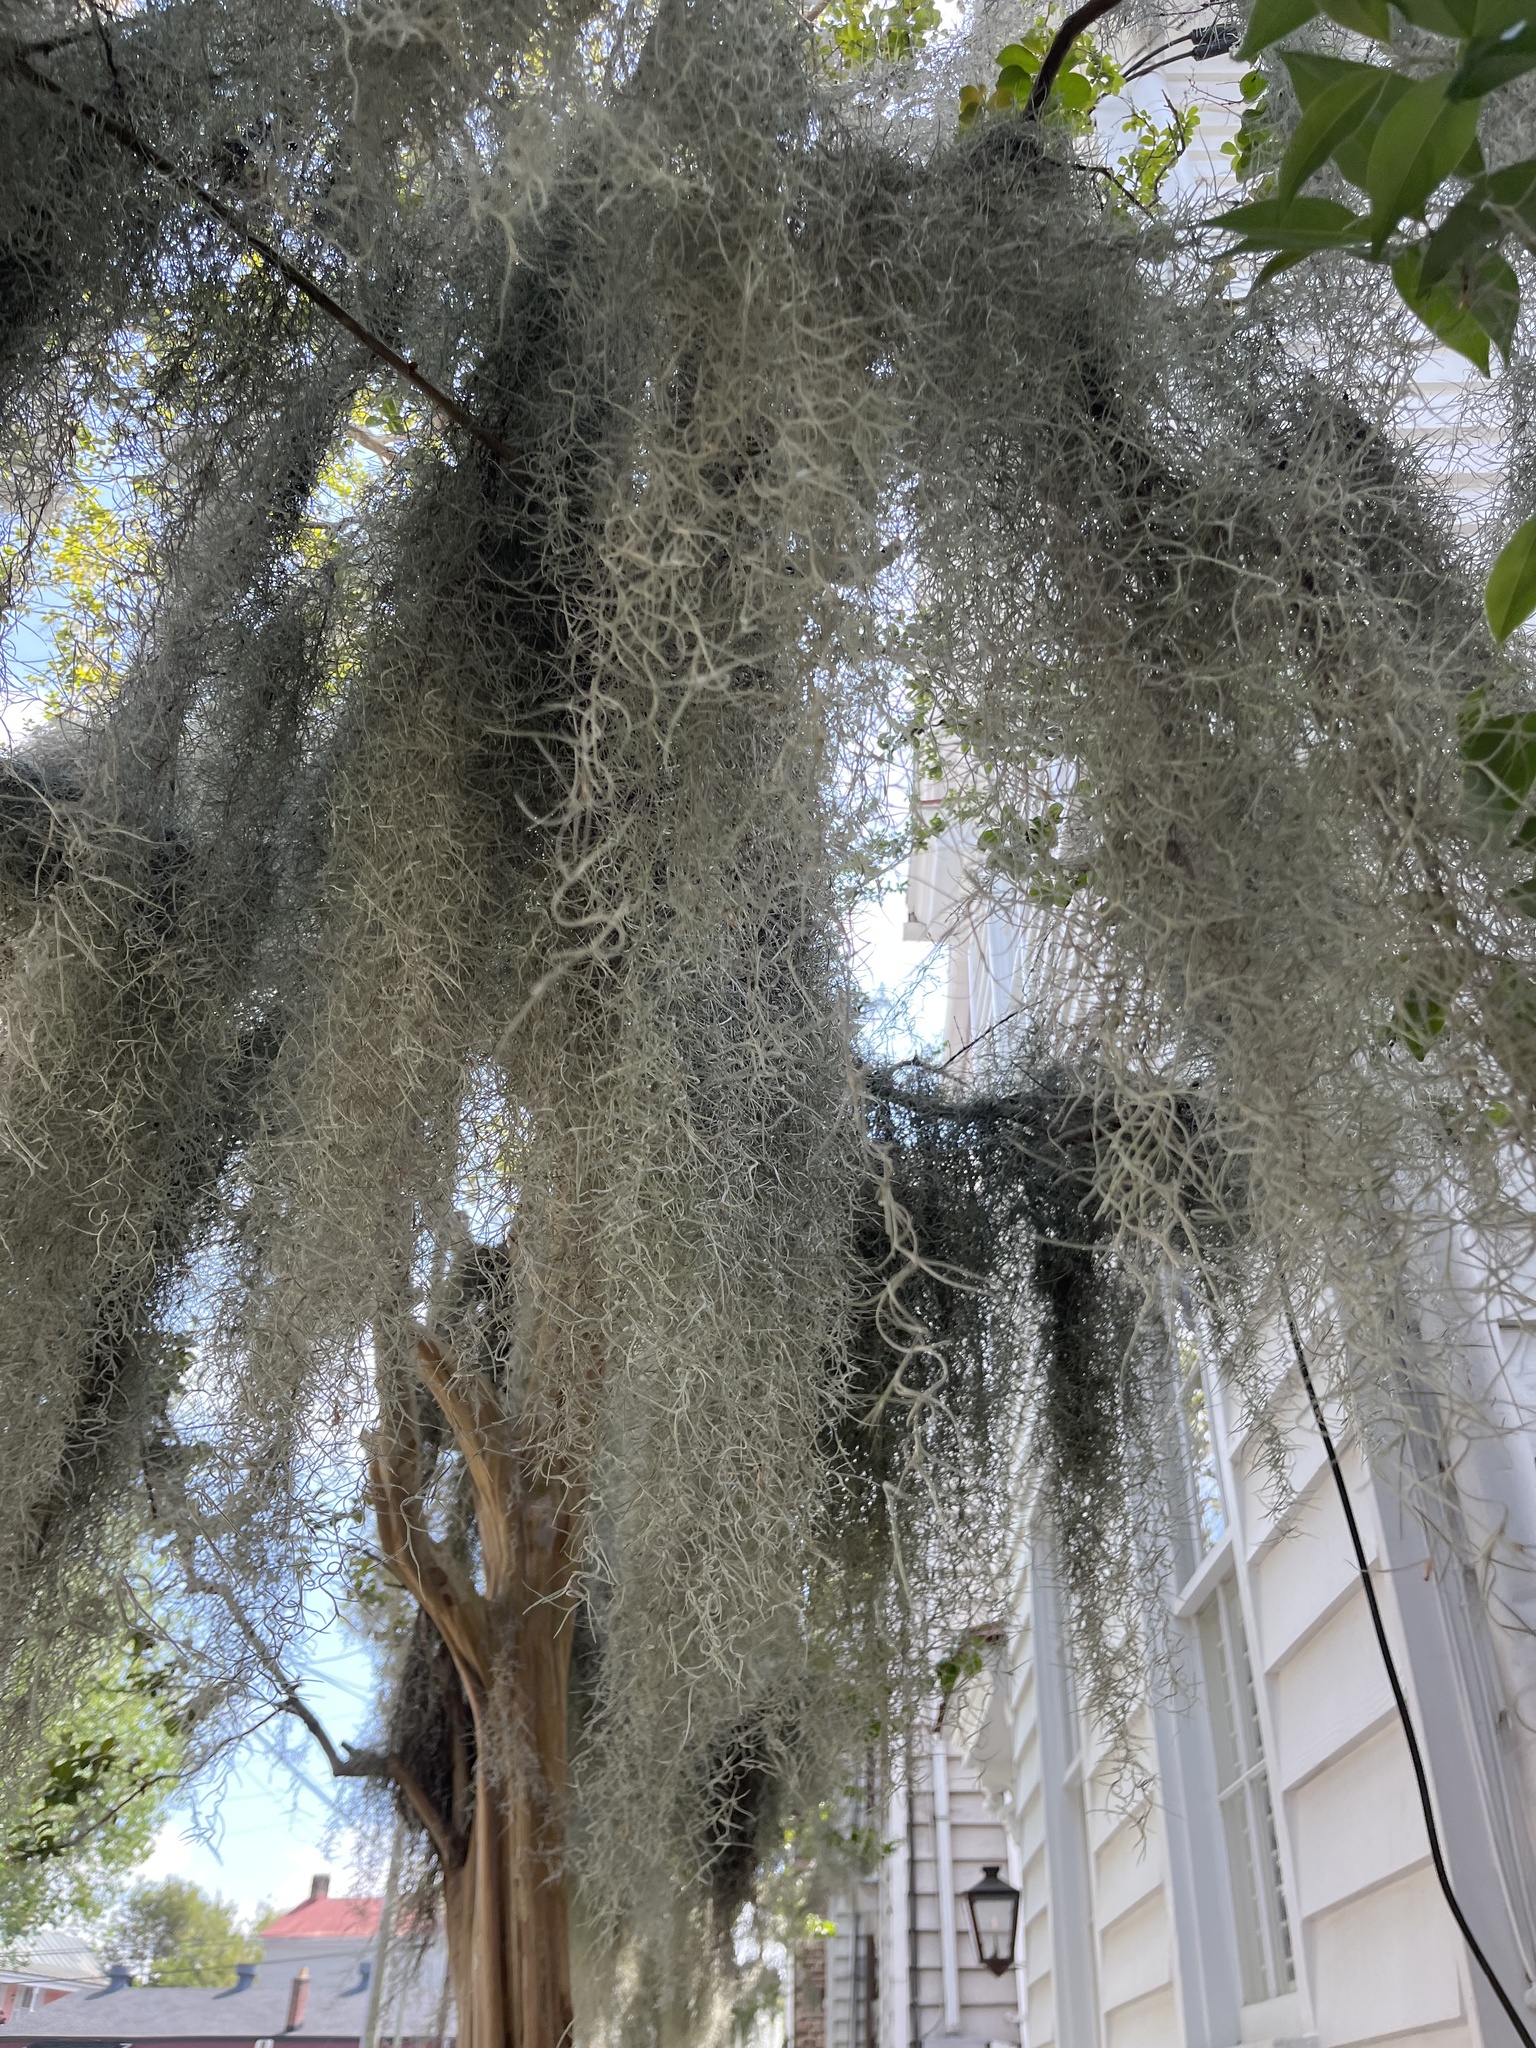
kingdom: Plantae
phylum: Tracheophyta
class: Liliopsida
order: Poales
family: Bromeliaceae
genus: Tillandsia
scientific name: Tillandsia usneoides
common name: Spanish moss
